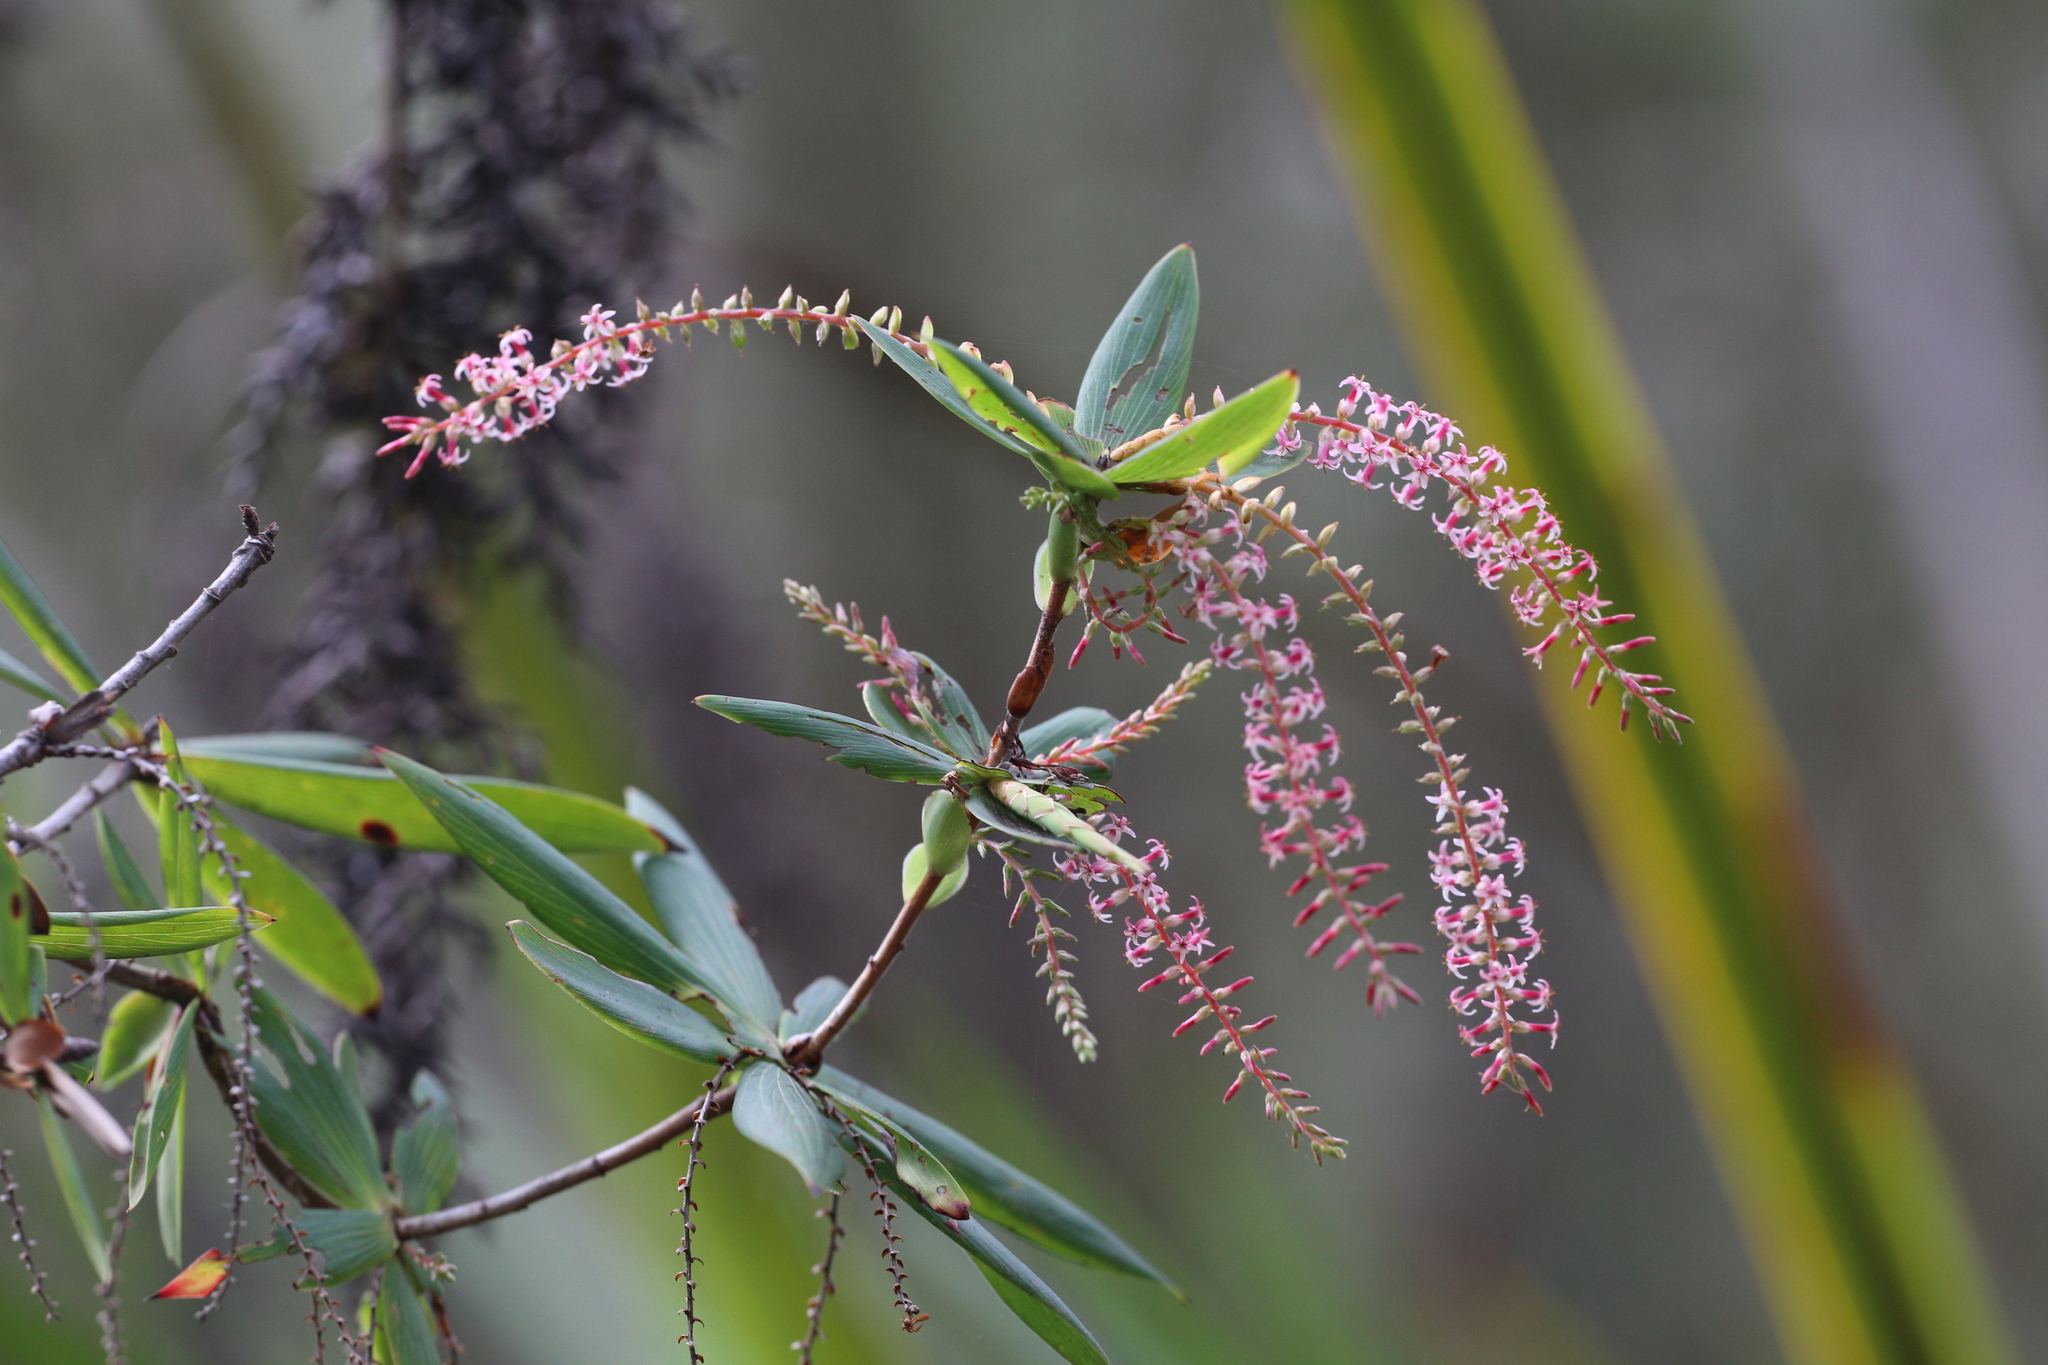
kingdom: Plantae
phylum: Tracheophyta
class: Magnoliopsida
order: Ericales
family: Ericaceae
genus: Leucopogon
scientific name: Leucopogon verticillatus
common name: Tasselshrub
